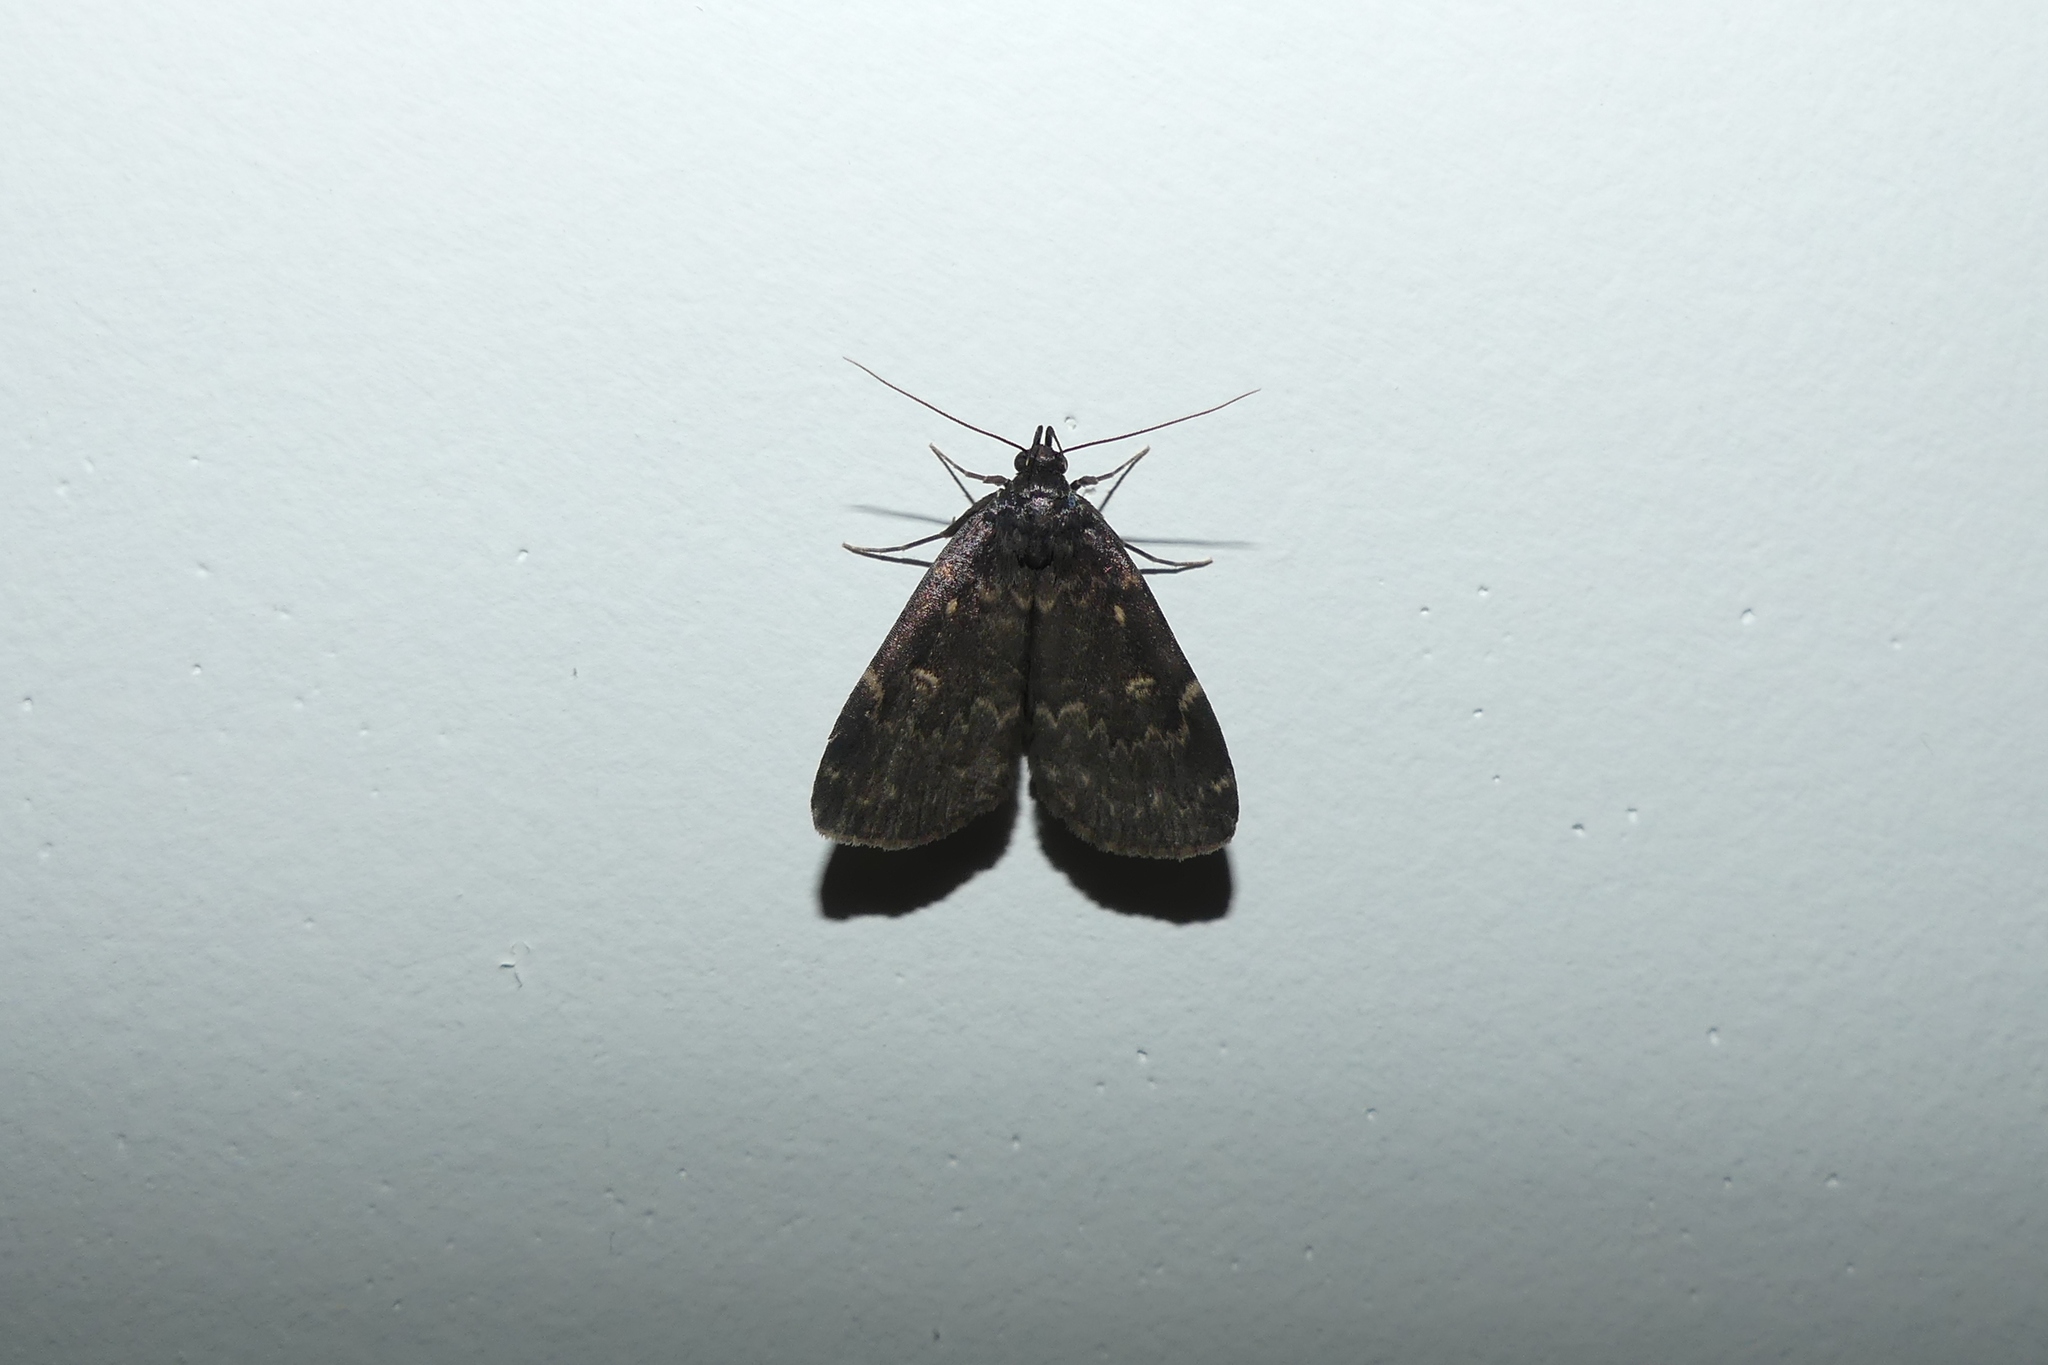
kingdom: Animalia
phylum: Arthropoda
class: Insecta
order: Lepidoptera
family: Erebidae
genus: Idia
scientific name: Idia lubricalis
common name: Twin-striped tabby
